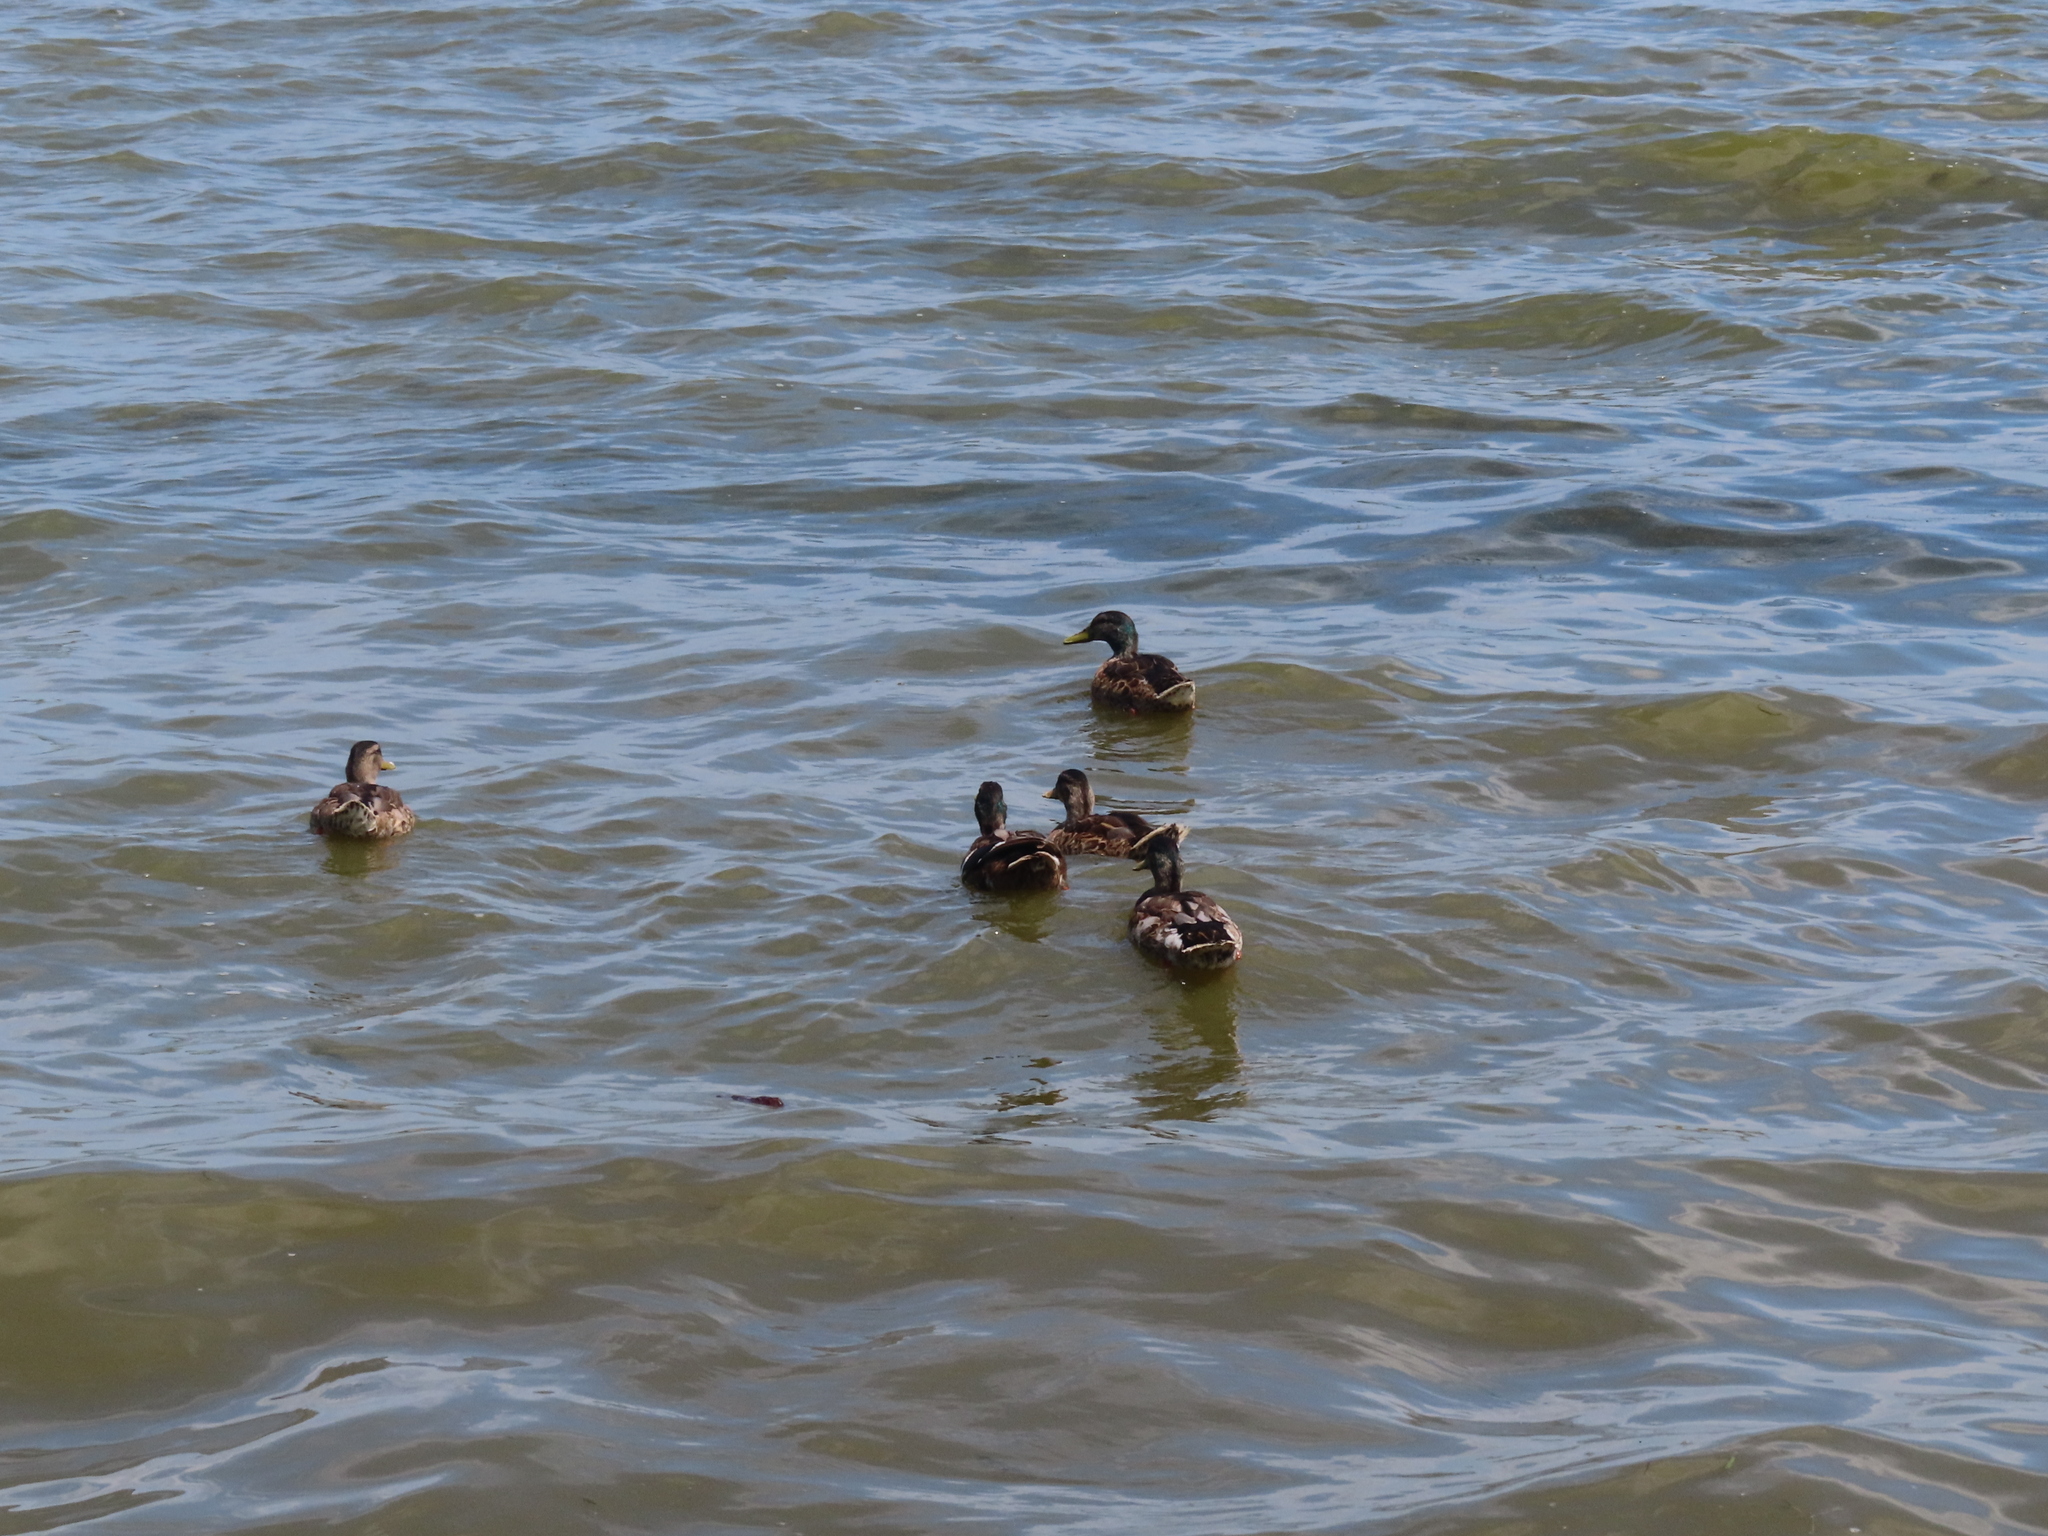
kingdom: Animalia
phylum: Chordata
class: Aves
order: Anseriformes
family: Anatidae
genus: Anas
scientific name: Anas platyrhynchos
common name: Mallard
